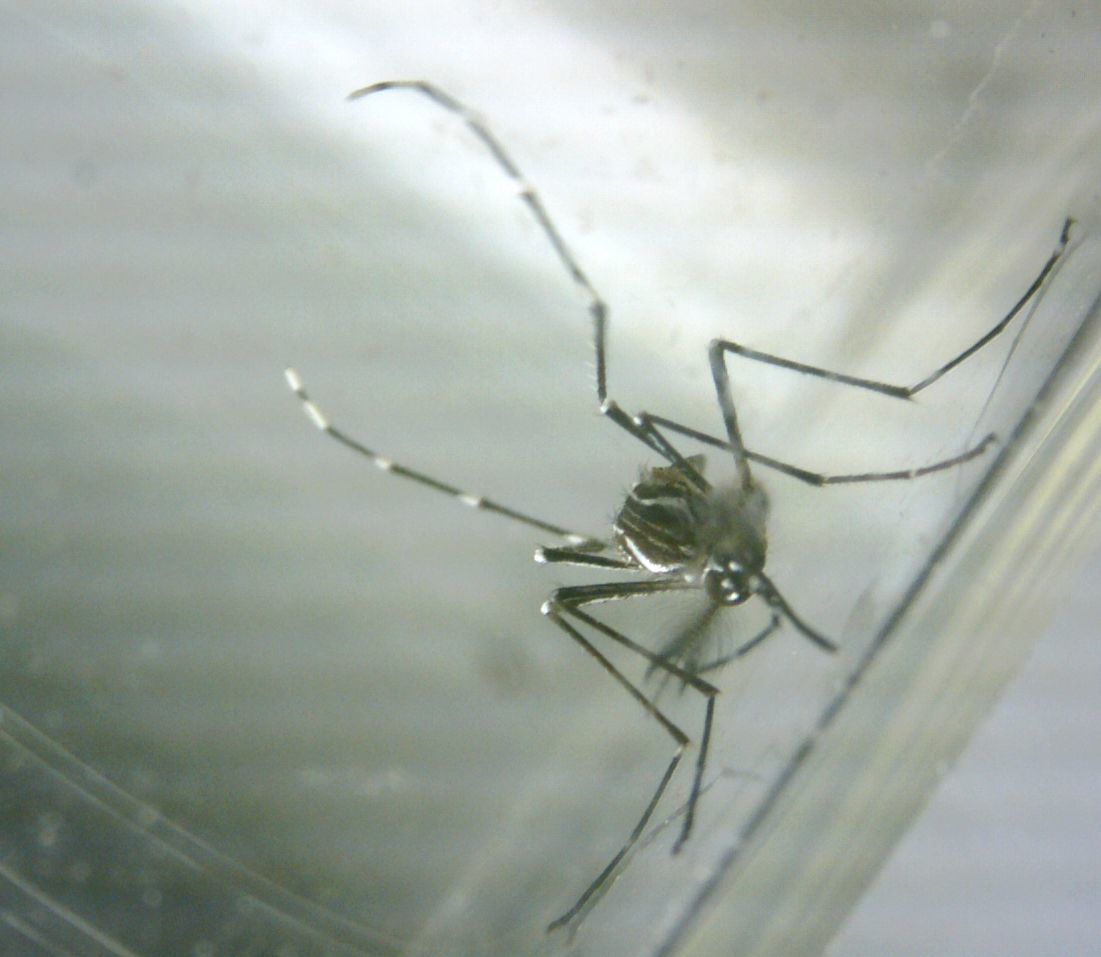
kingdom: Animalia
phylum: Arthropoda
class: Insecta
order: Diptera
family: Culicidae
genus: Aedes
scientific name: Aedes aegypti
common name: Yellow fever mosquito
